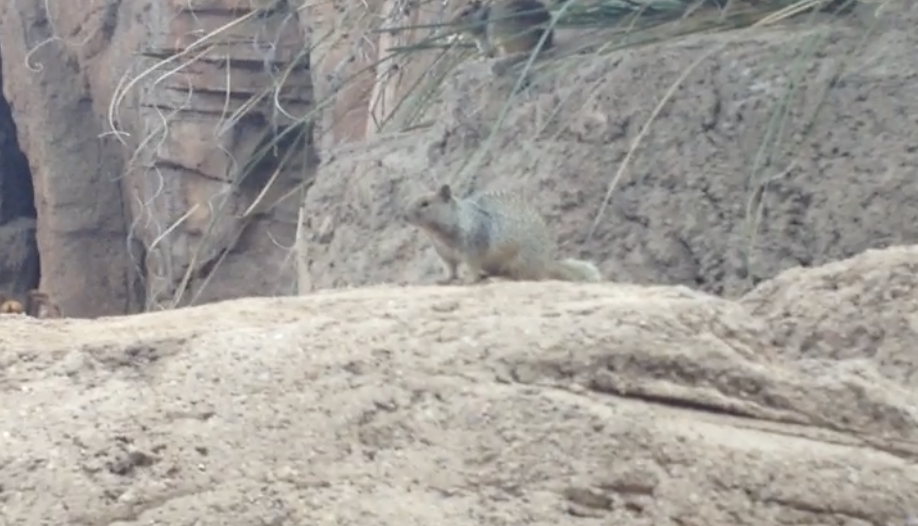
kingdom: Animalia
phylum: Chordata
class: Mammalia
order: Rodentia
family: Sciuridae
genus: Otospermophilus
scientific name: Otospermophilus variegatus
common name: Rock squirrel
